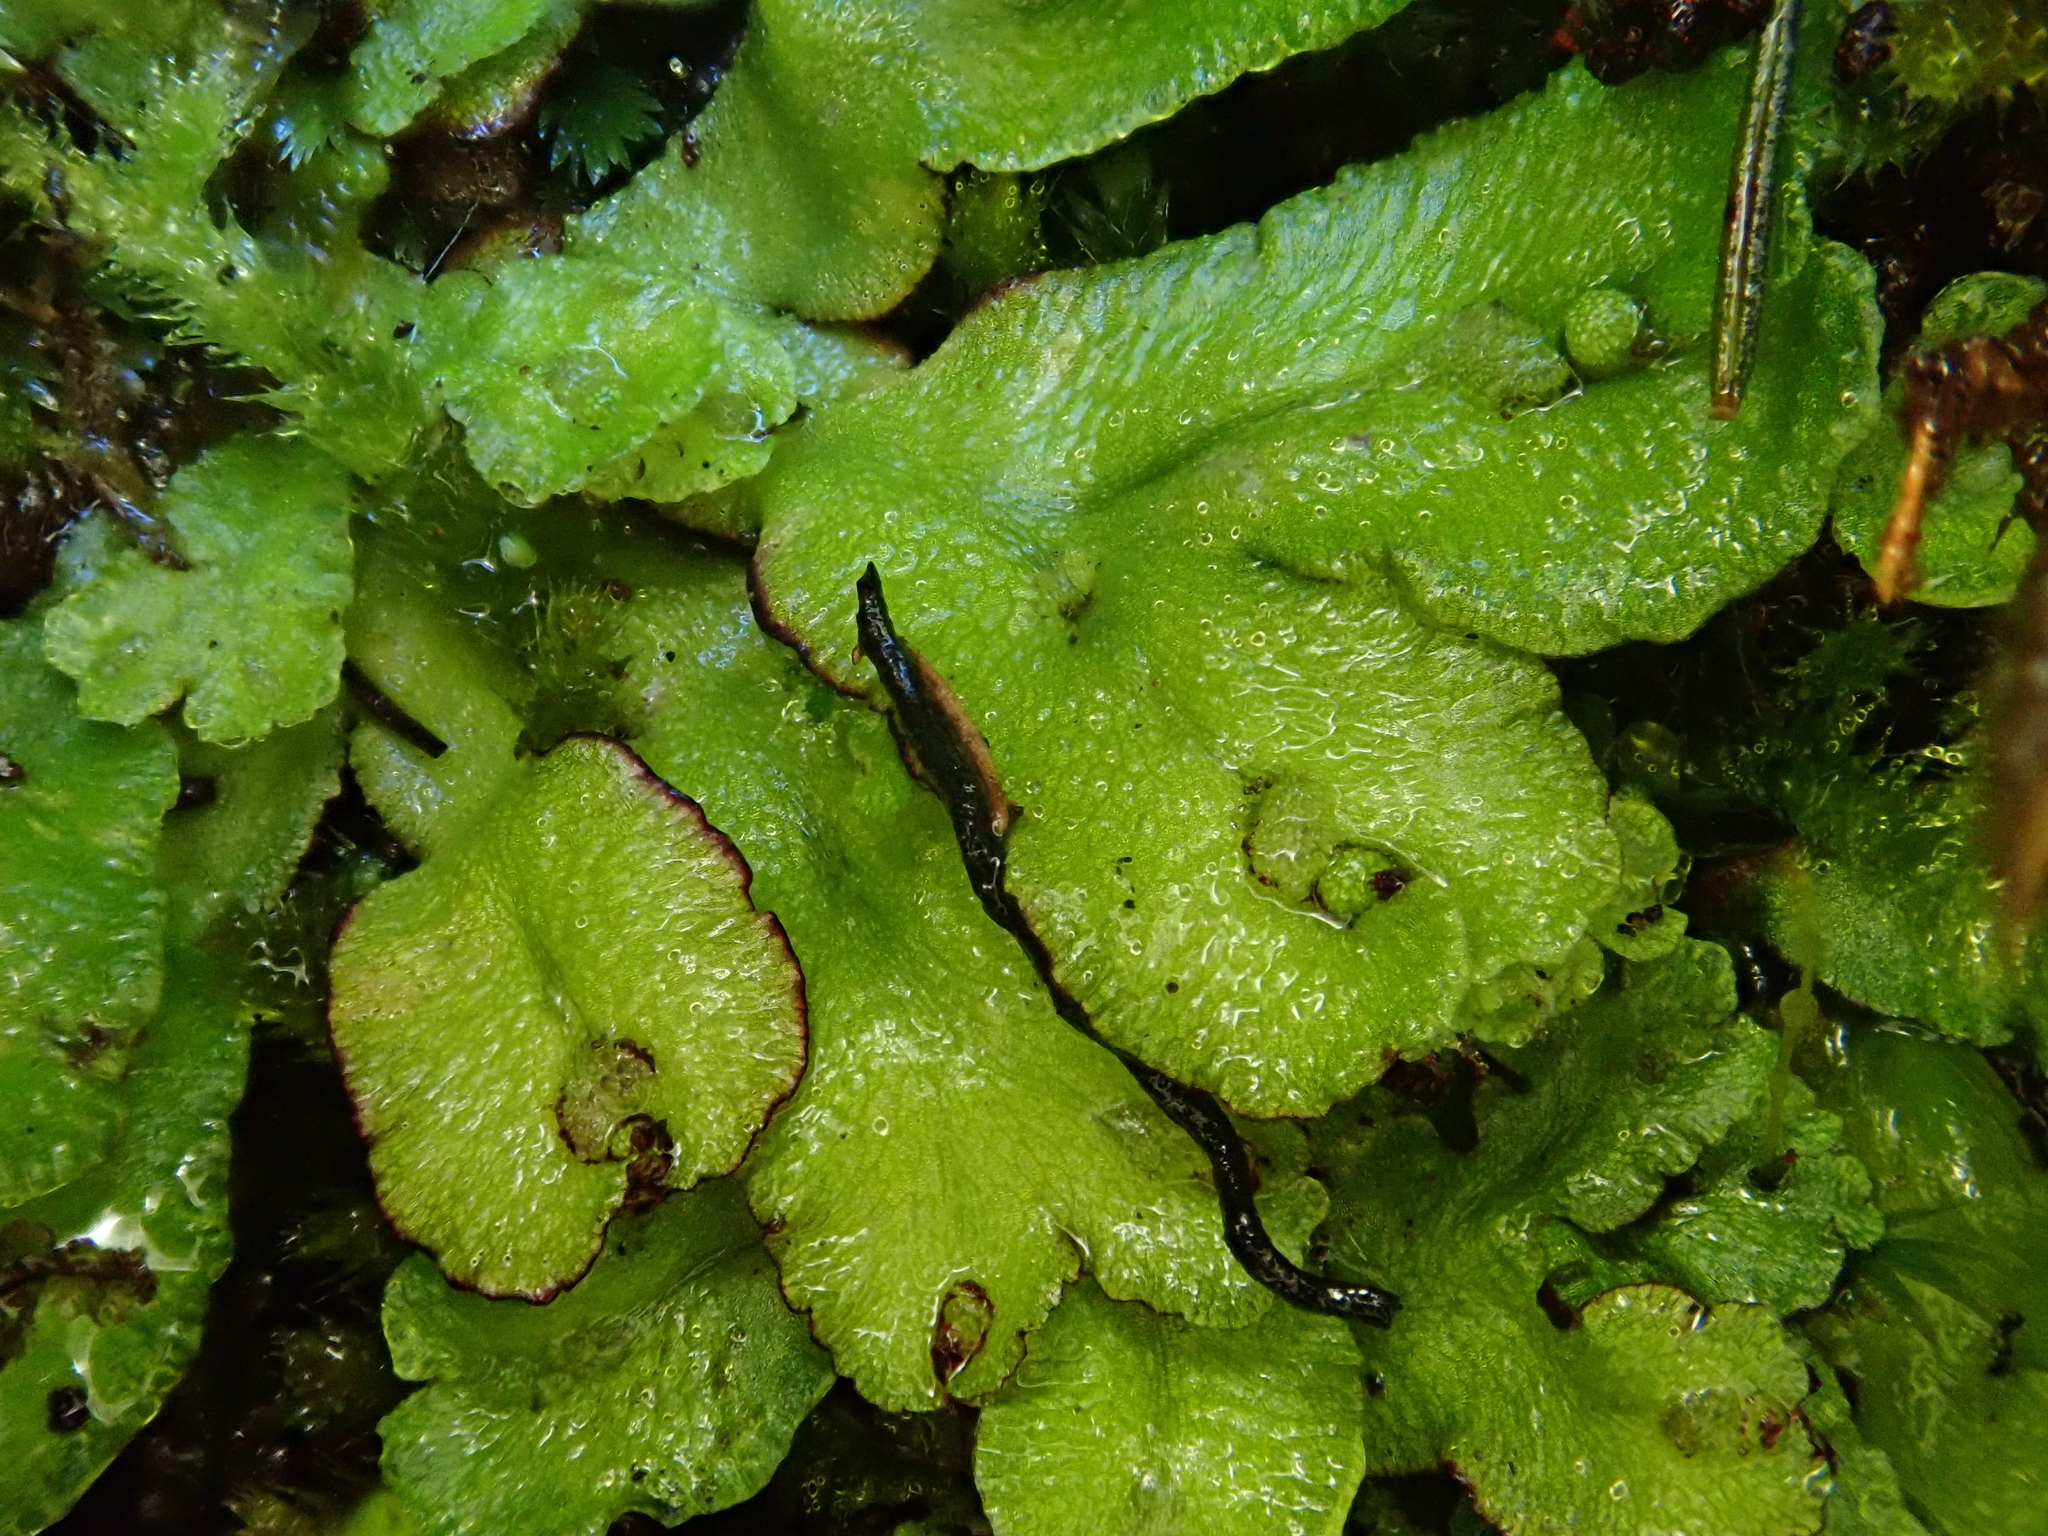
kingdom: Plantae
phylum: Marchantiophyta
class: Marchantiopsida
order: Marchantiales
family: Aytoniaceae
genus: Asterella
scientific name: Asterella africana
